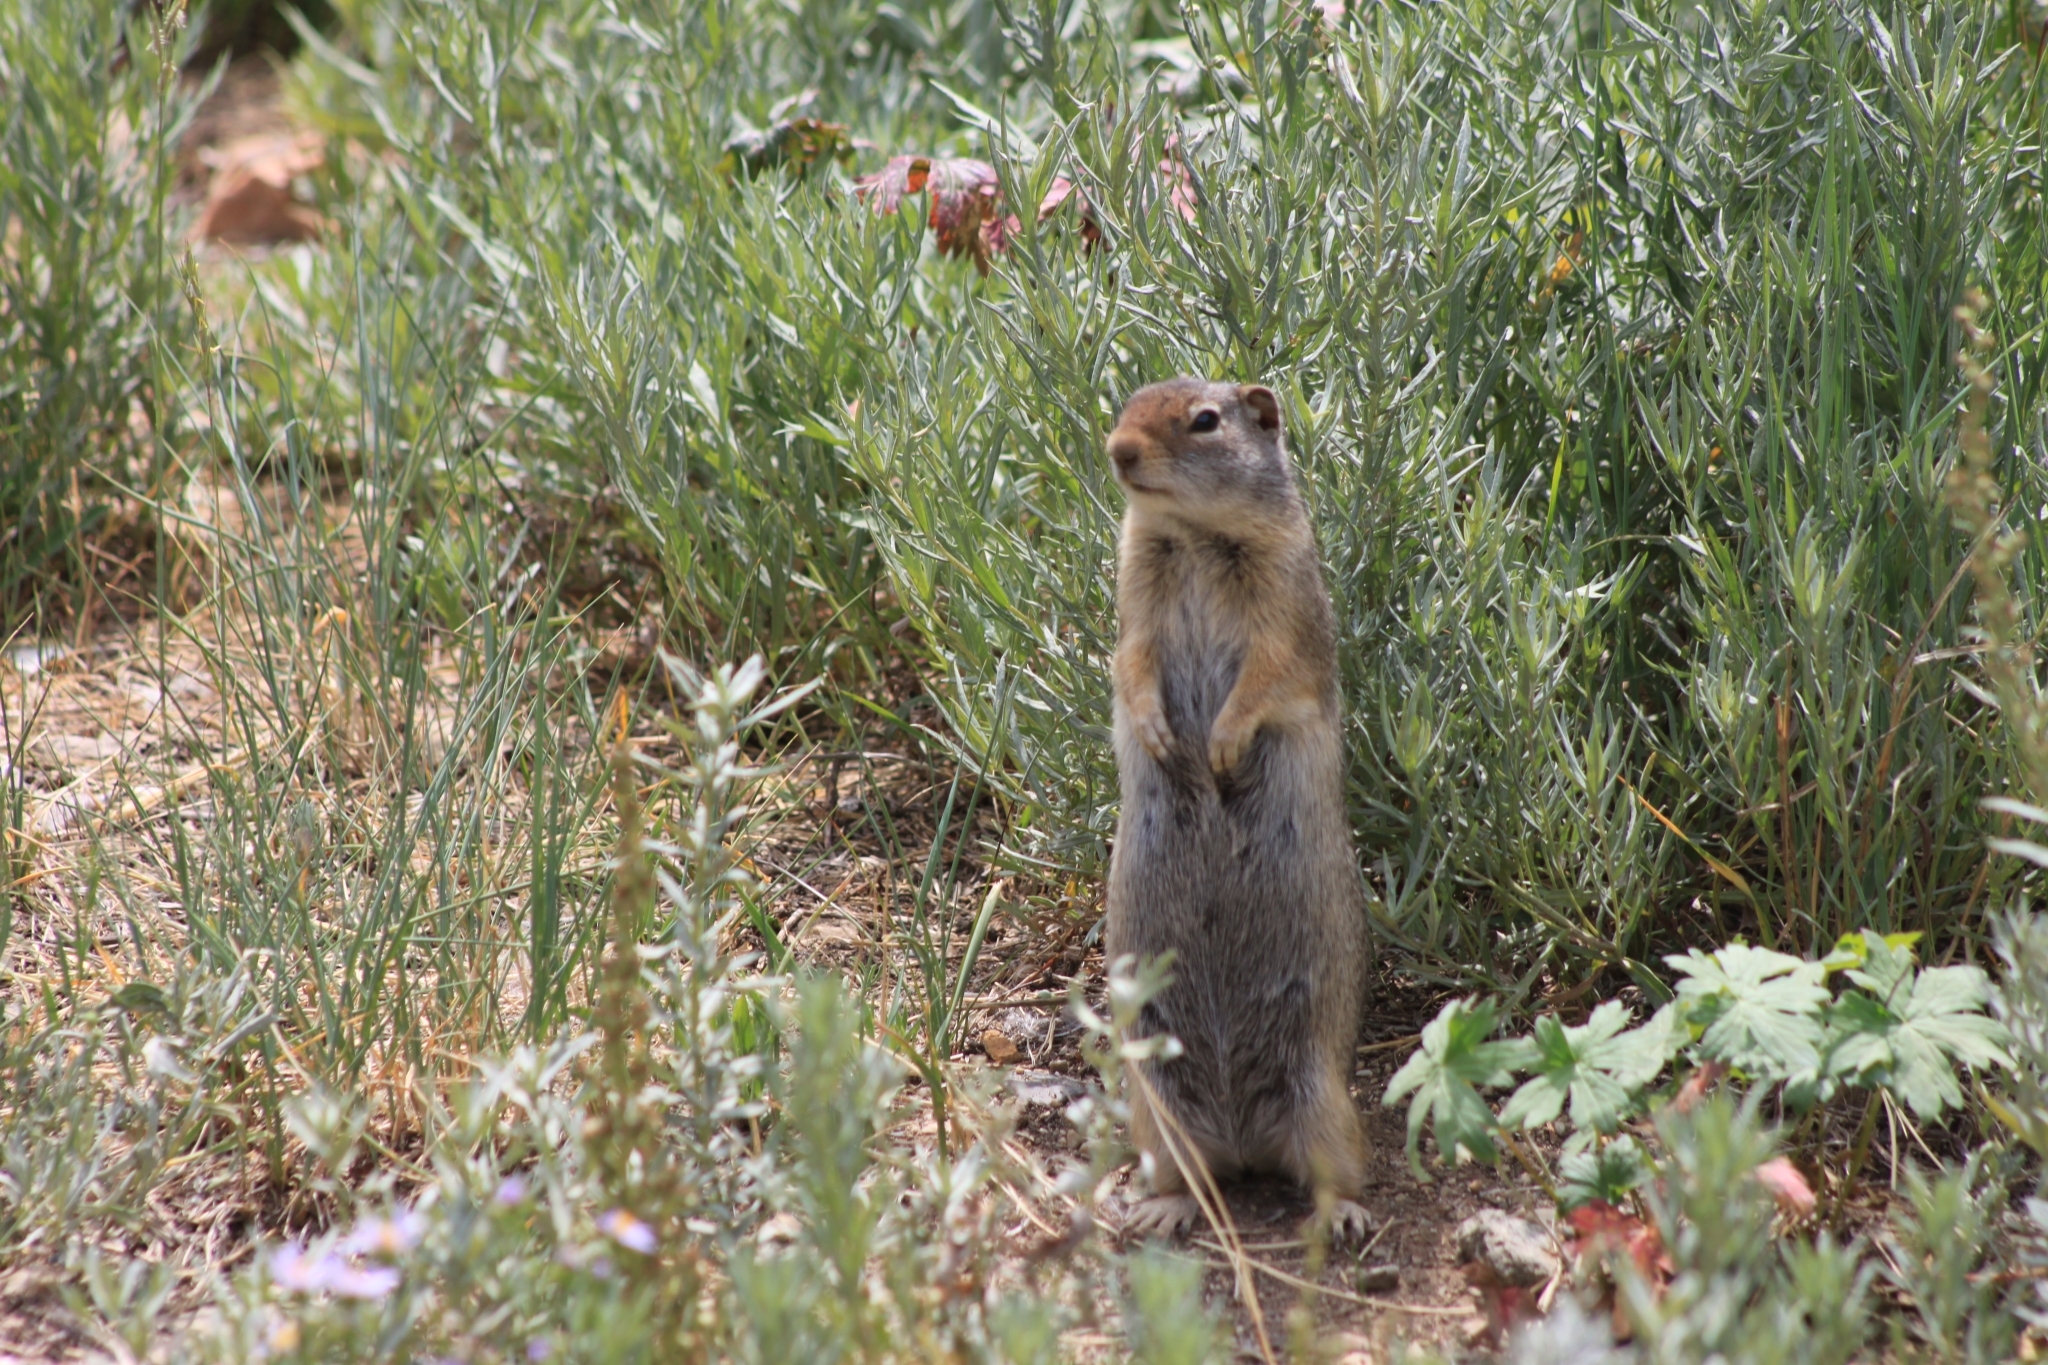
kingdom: Animalia
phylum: Chordata
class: Mammalia
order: Rodentia
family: Sciuridae
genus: Urocitellus
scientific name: Urocitellus armatus
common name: Uinta ground squirrel
